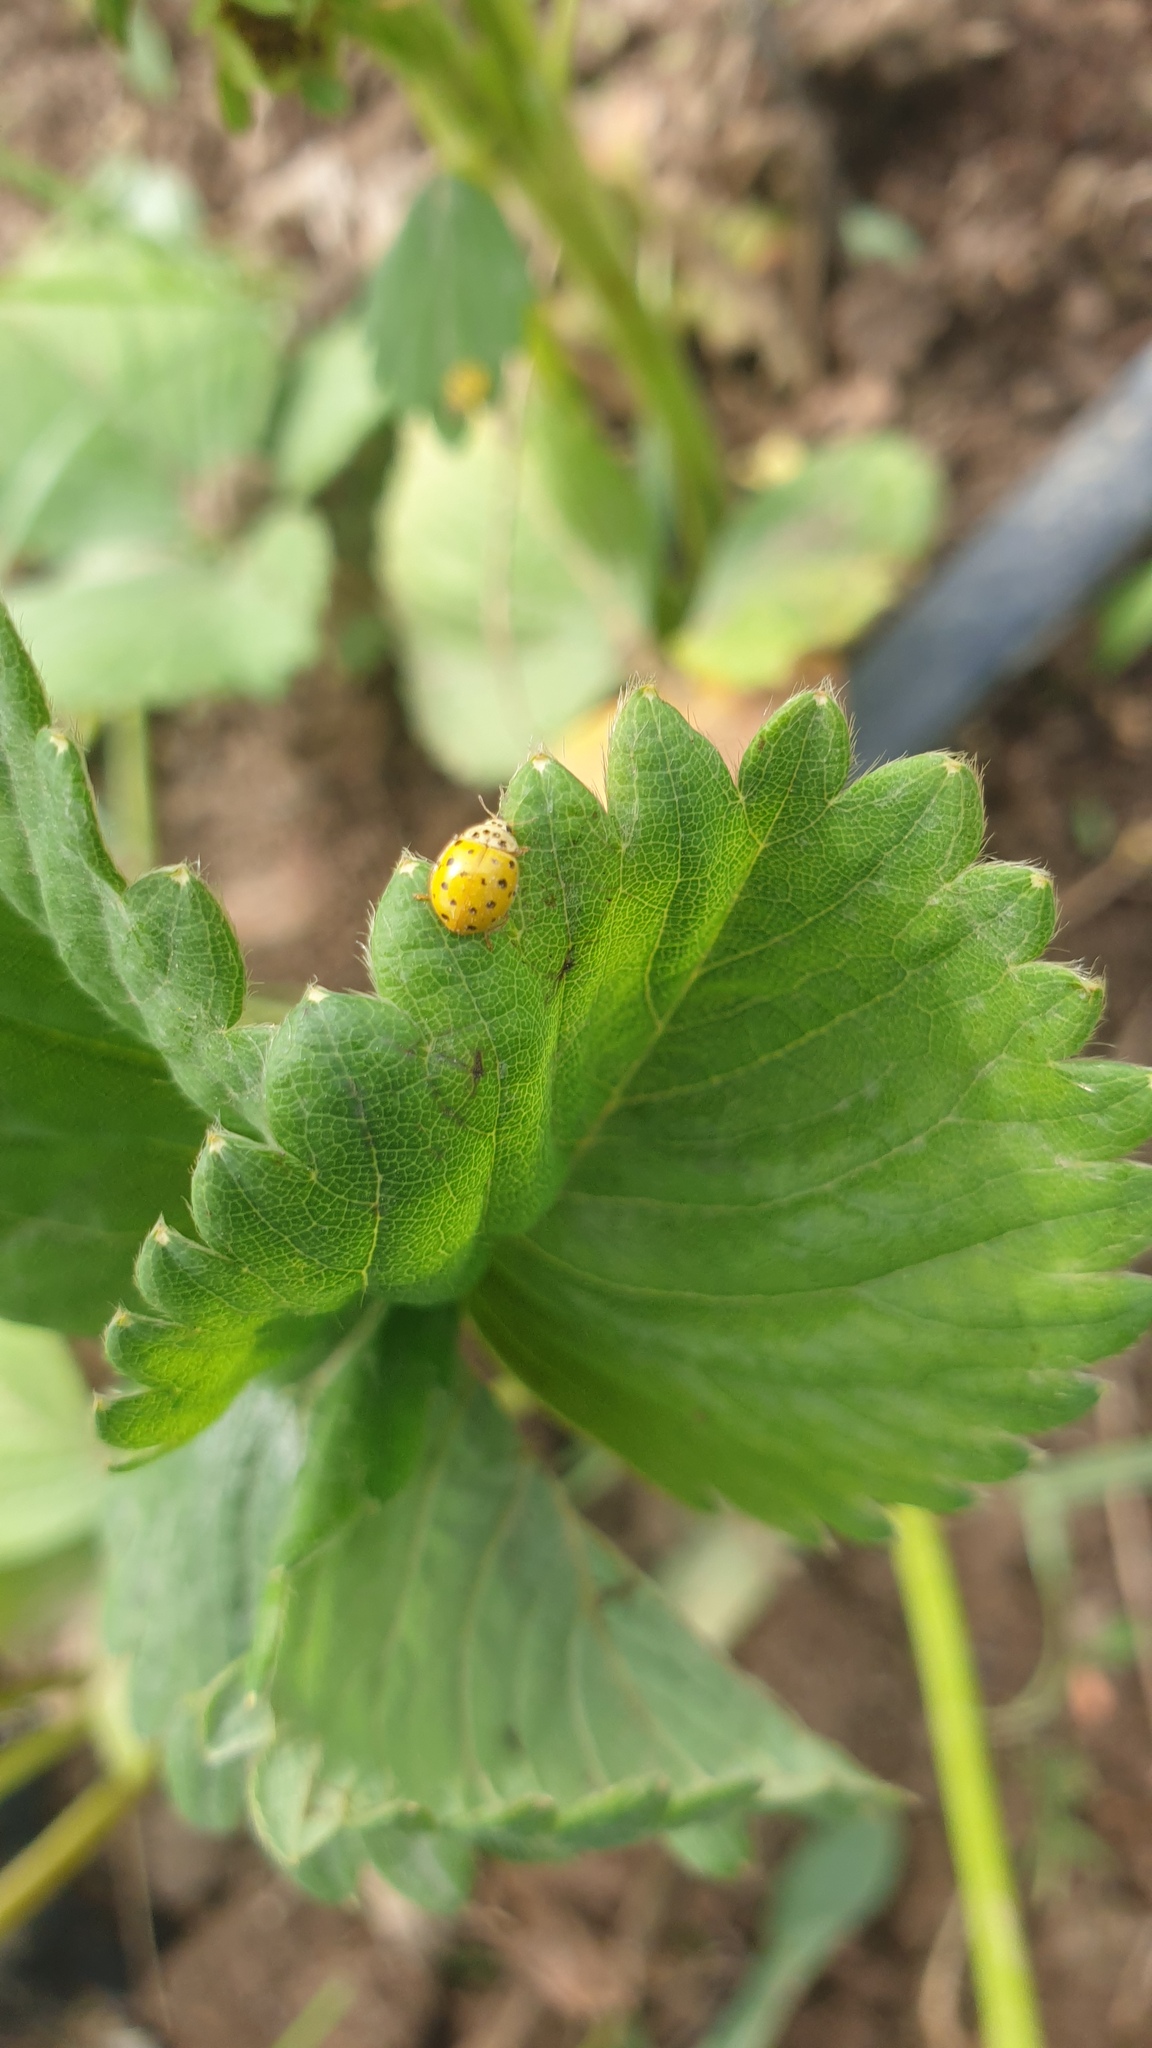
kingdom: Animalia
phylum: Arthropoda
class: Insecta
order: Coleoptera
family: Coccinellidae
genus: Psyllobora
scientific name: Psyllobora vigintiduopunctata
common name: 22-spot ladybird
